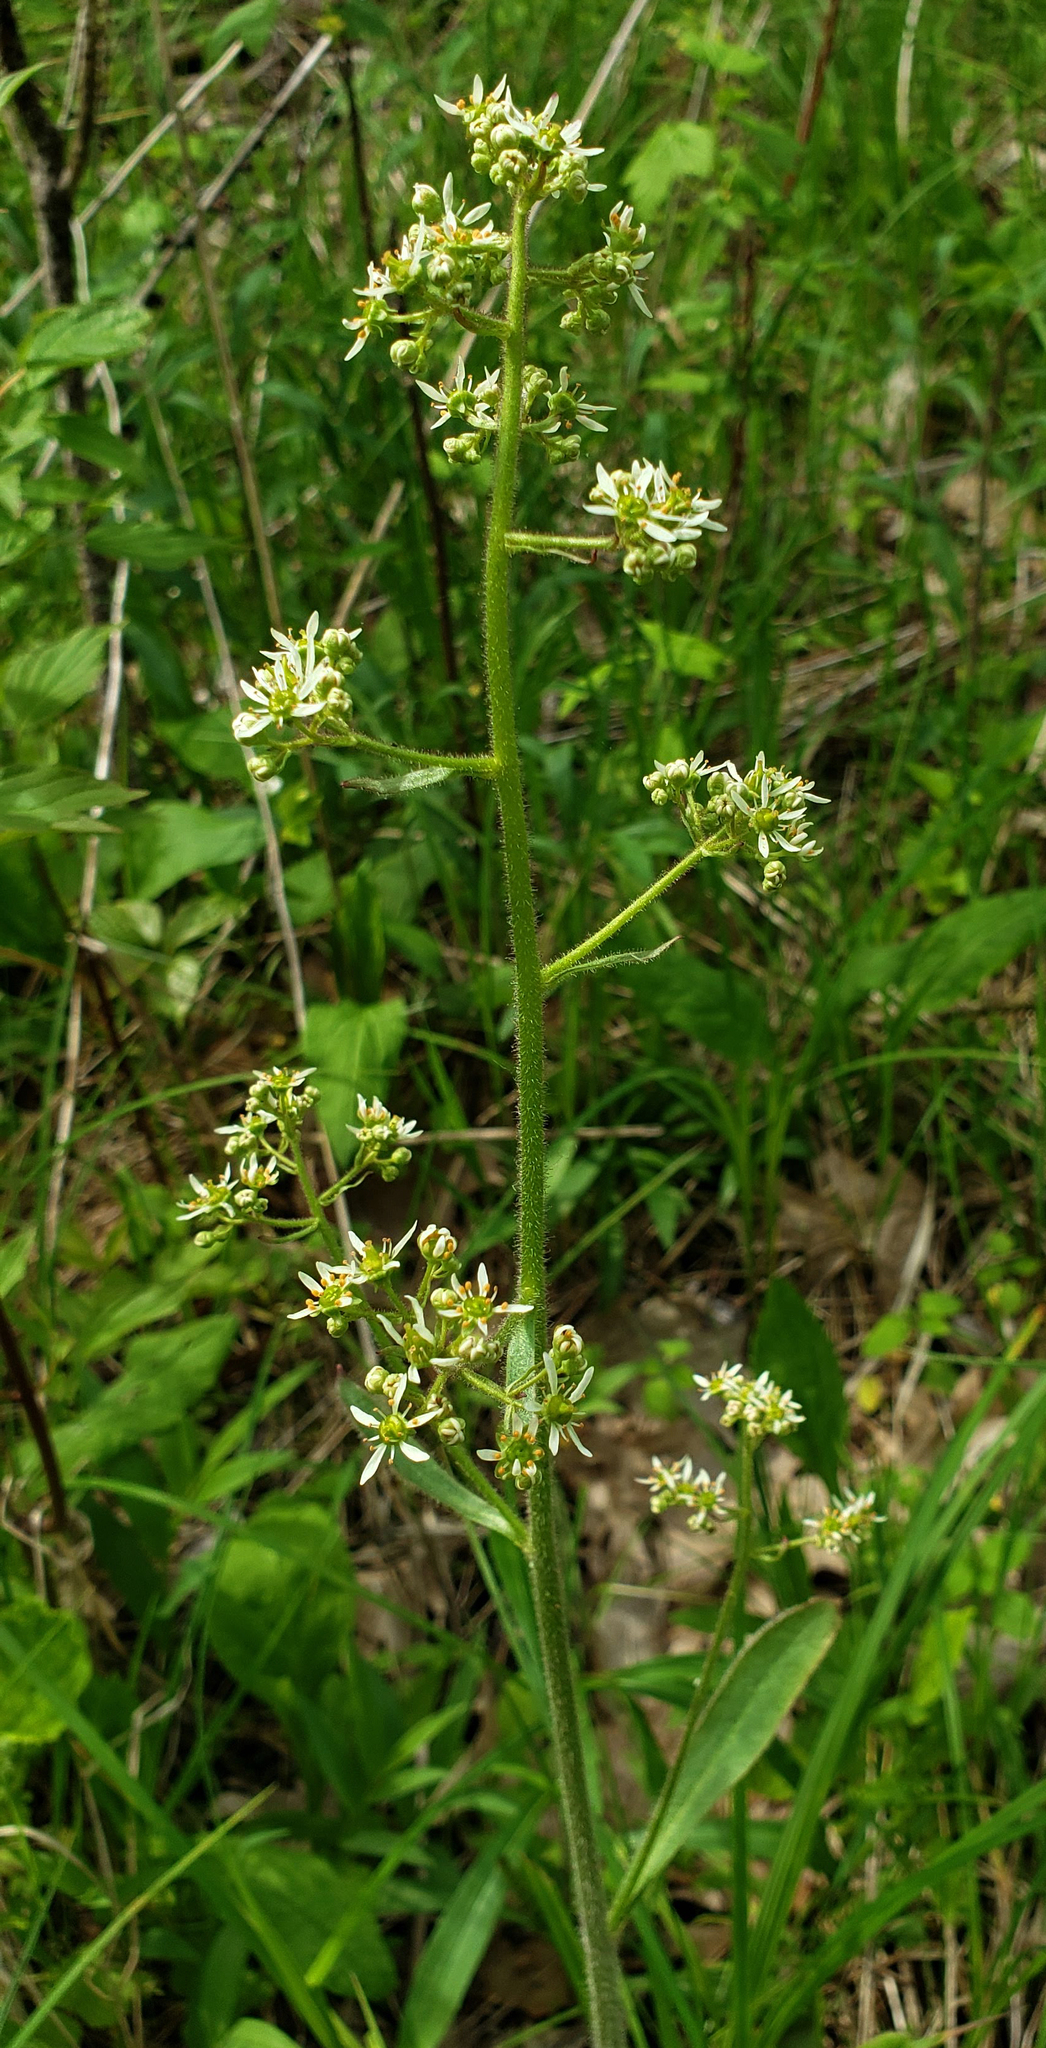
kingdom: Plantae
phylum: Tracheophyta
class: Magnoliopsida
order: Saxifragales
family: Saxifragaceae
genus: Micranthes
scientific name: Micranthes pensylvanica
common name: Marsh saxifrage
